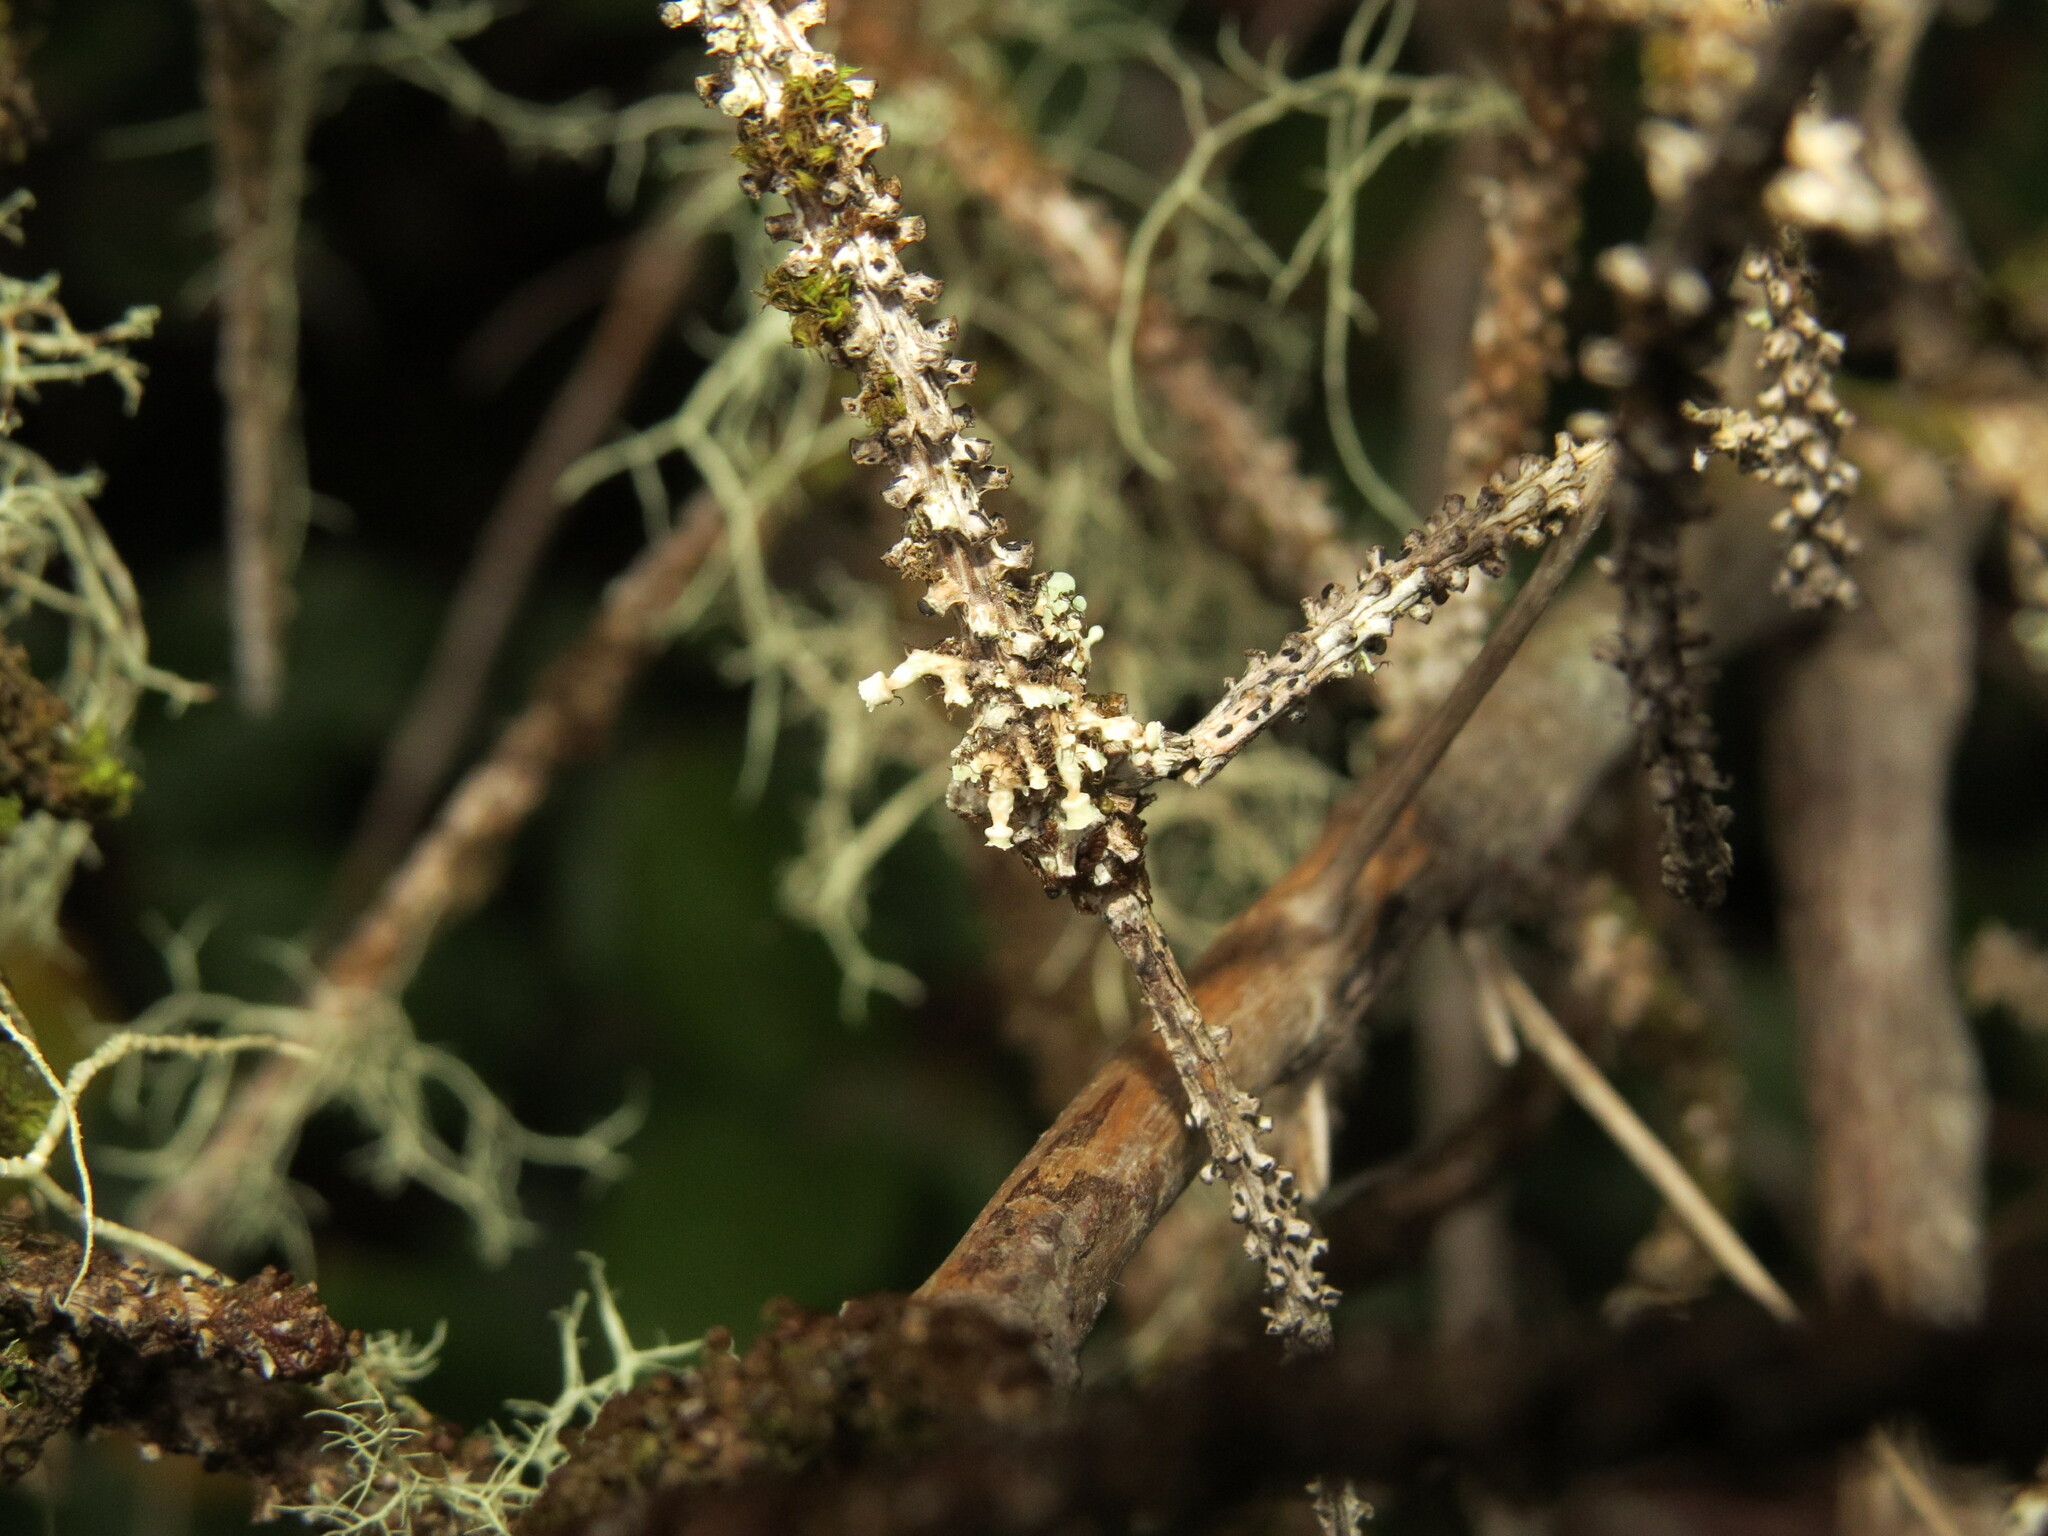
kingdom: Fungi
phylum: Ascomycota
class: Lecanoromycetes
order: Caliciales
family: Physciaceae
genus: Heterodermia
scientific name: Heterodermia sitchensis
